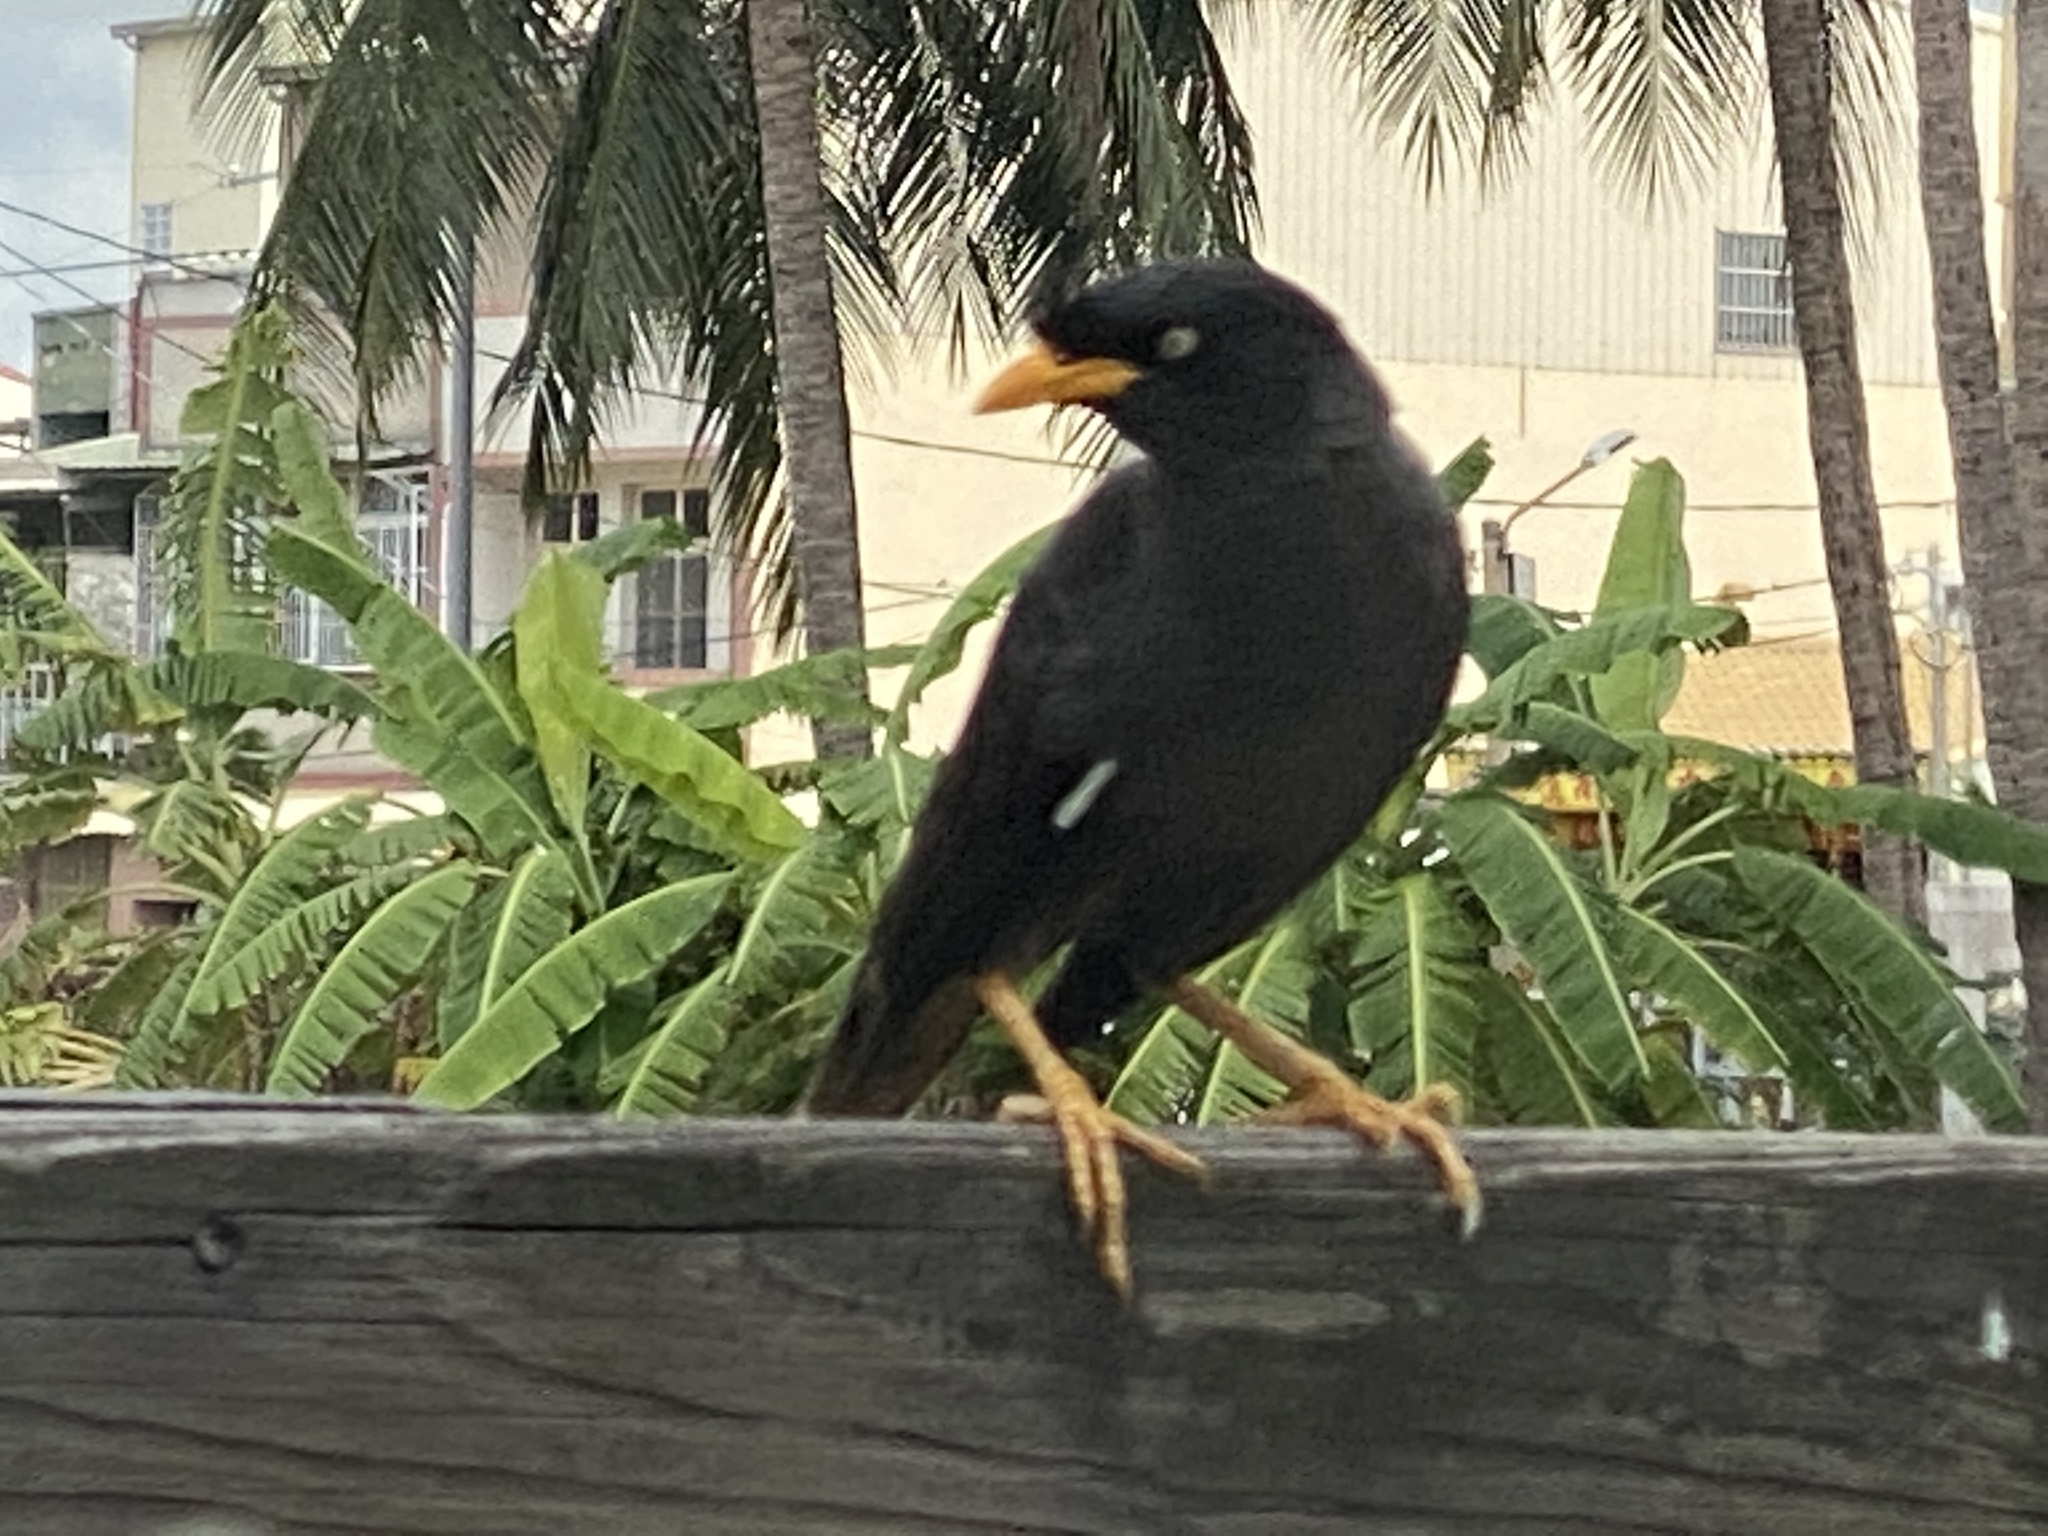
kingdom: Animalia
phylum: Chordata
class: Aves
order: Passeriformes
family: Sturnidae
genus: Acridotheres
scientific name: Acridotheres javanicus
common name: Javan myna
